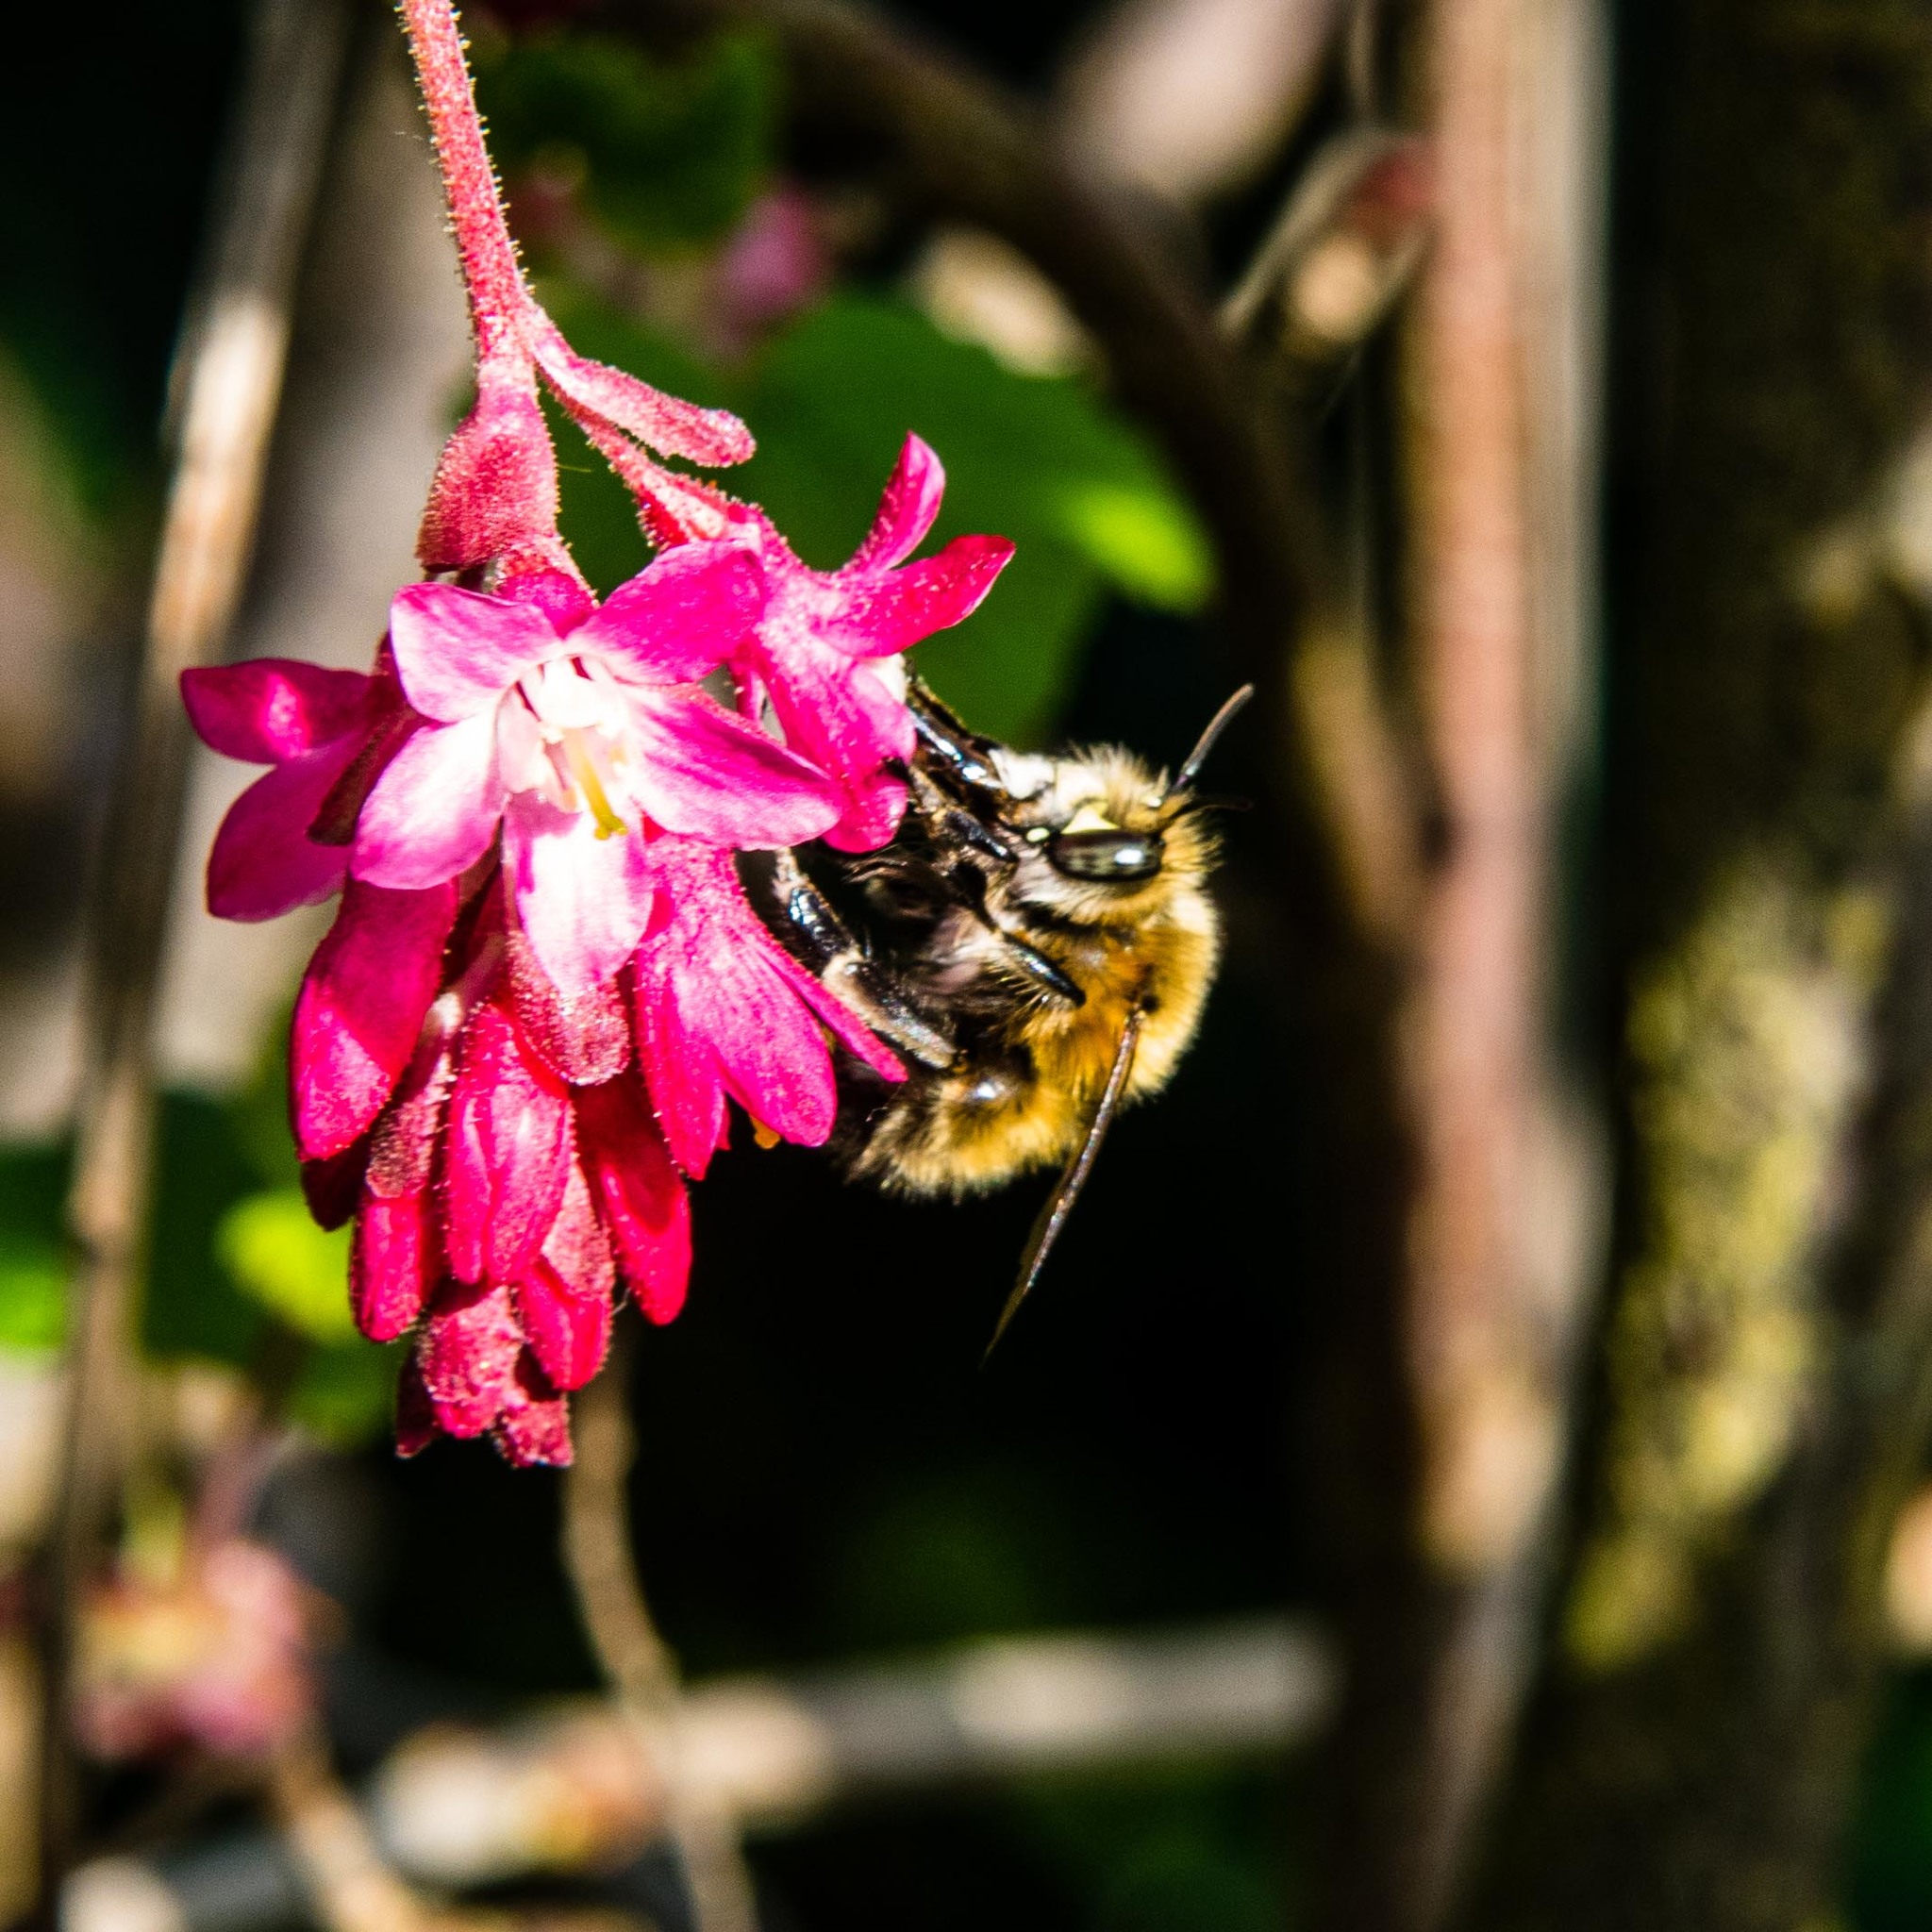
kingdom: Animalia
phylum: Arthropoda
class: Insecta
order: Hymenoptera
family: Apidae
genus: Anthophora
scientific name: Anthophora plumipes
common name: Hairy-footed flower bee
